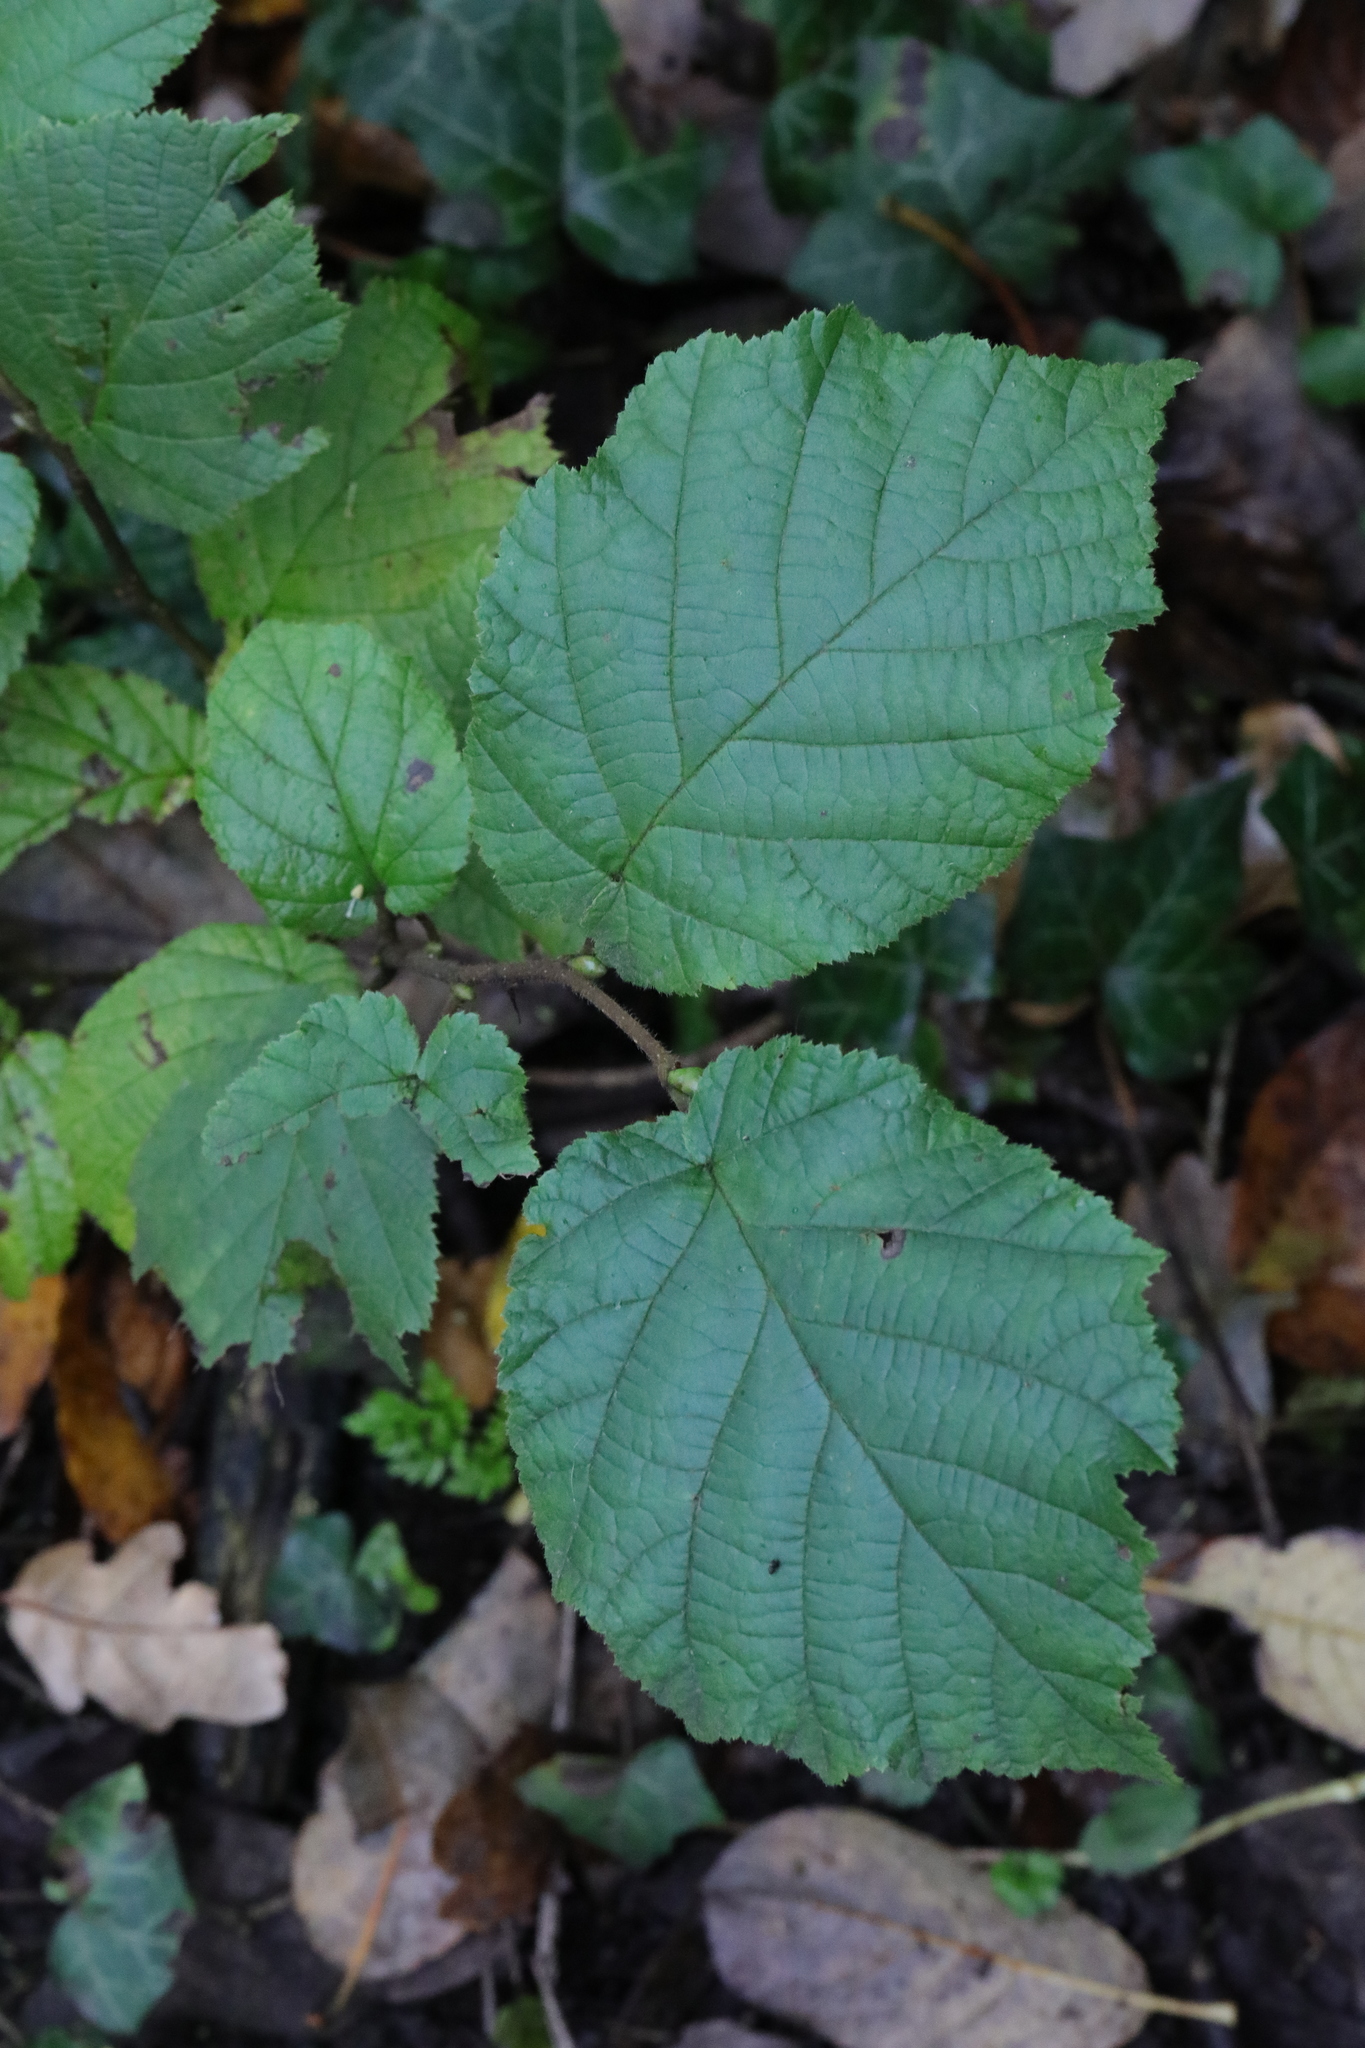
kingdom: Plantae
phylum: Tracheophyta
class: Magnoliopsida
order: Fagales
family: Betulaceae
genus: Corylus
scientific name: Corylus avellana
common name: European hazel
